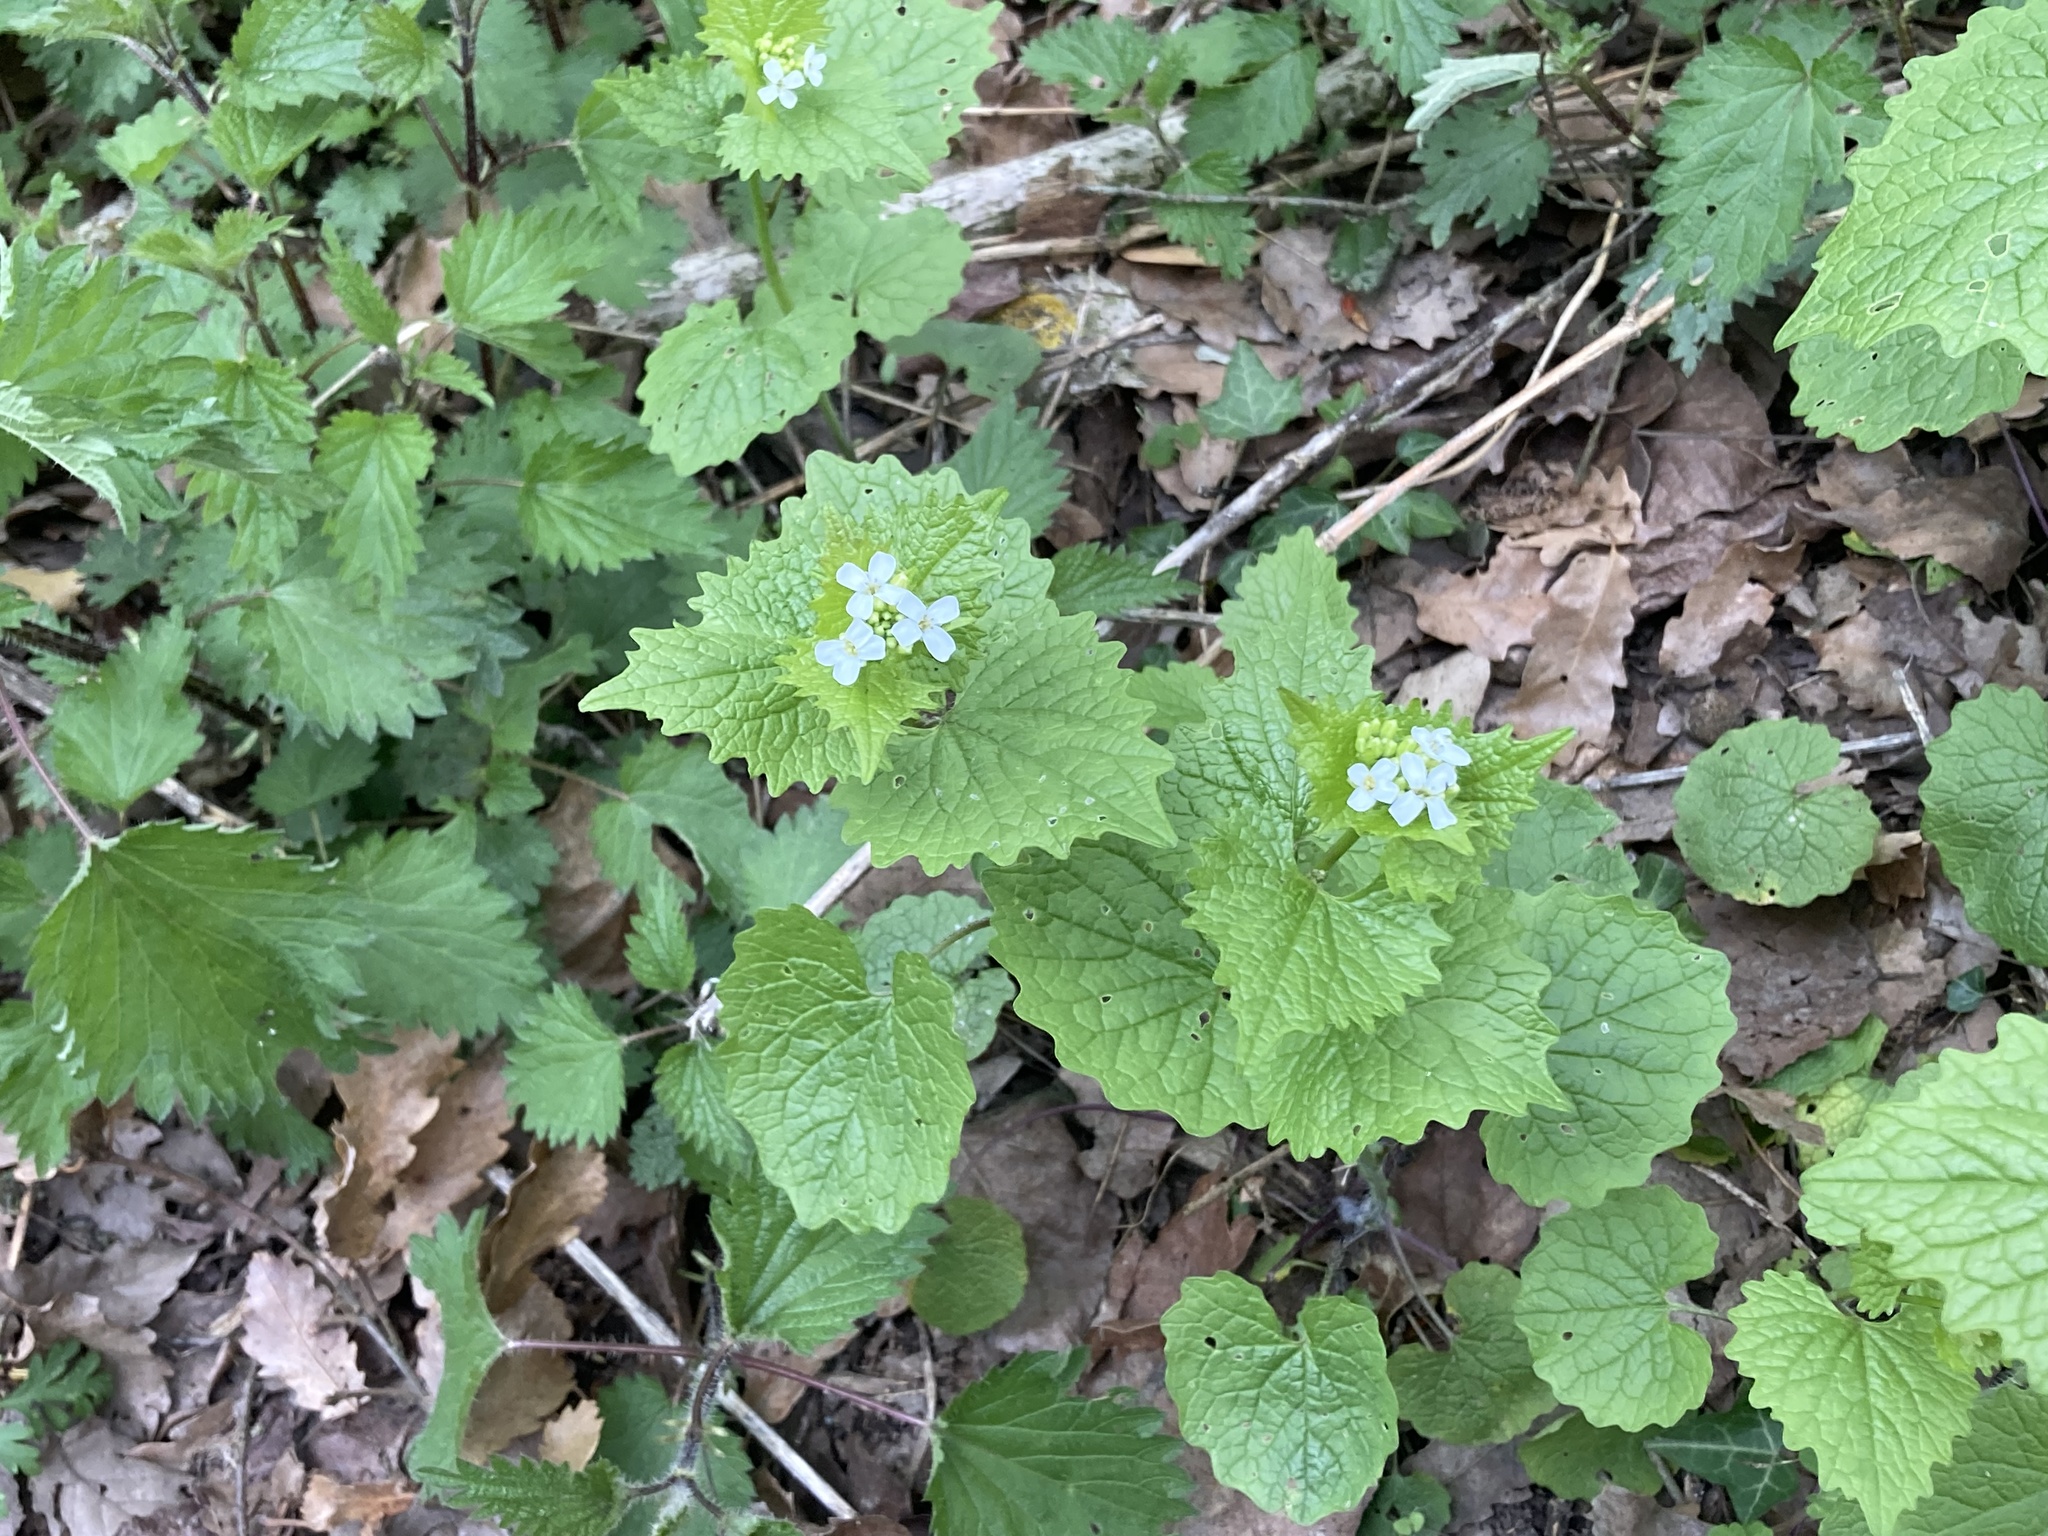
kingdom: Plantae
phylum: Tracheophyta
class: Magnoliopsida
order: Brassicales
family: Brassicaceae
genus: Alliaria
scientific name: Alliaria petiolata
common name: Garlic mustard
